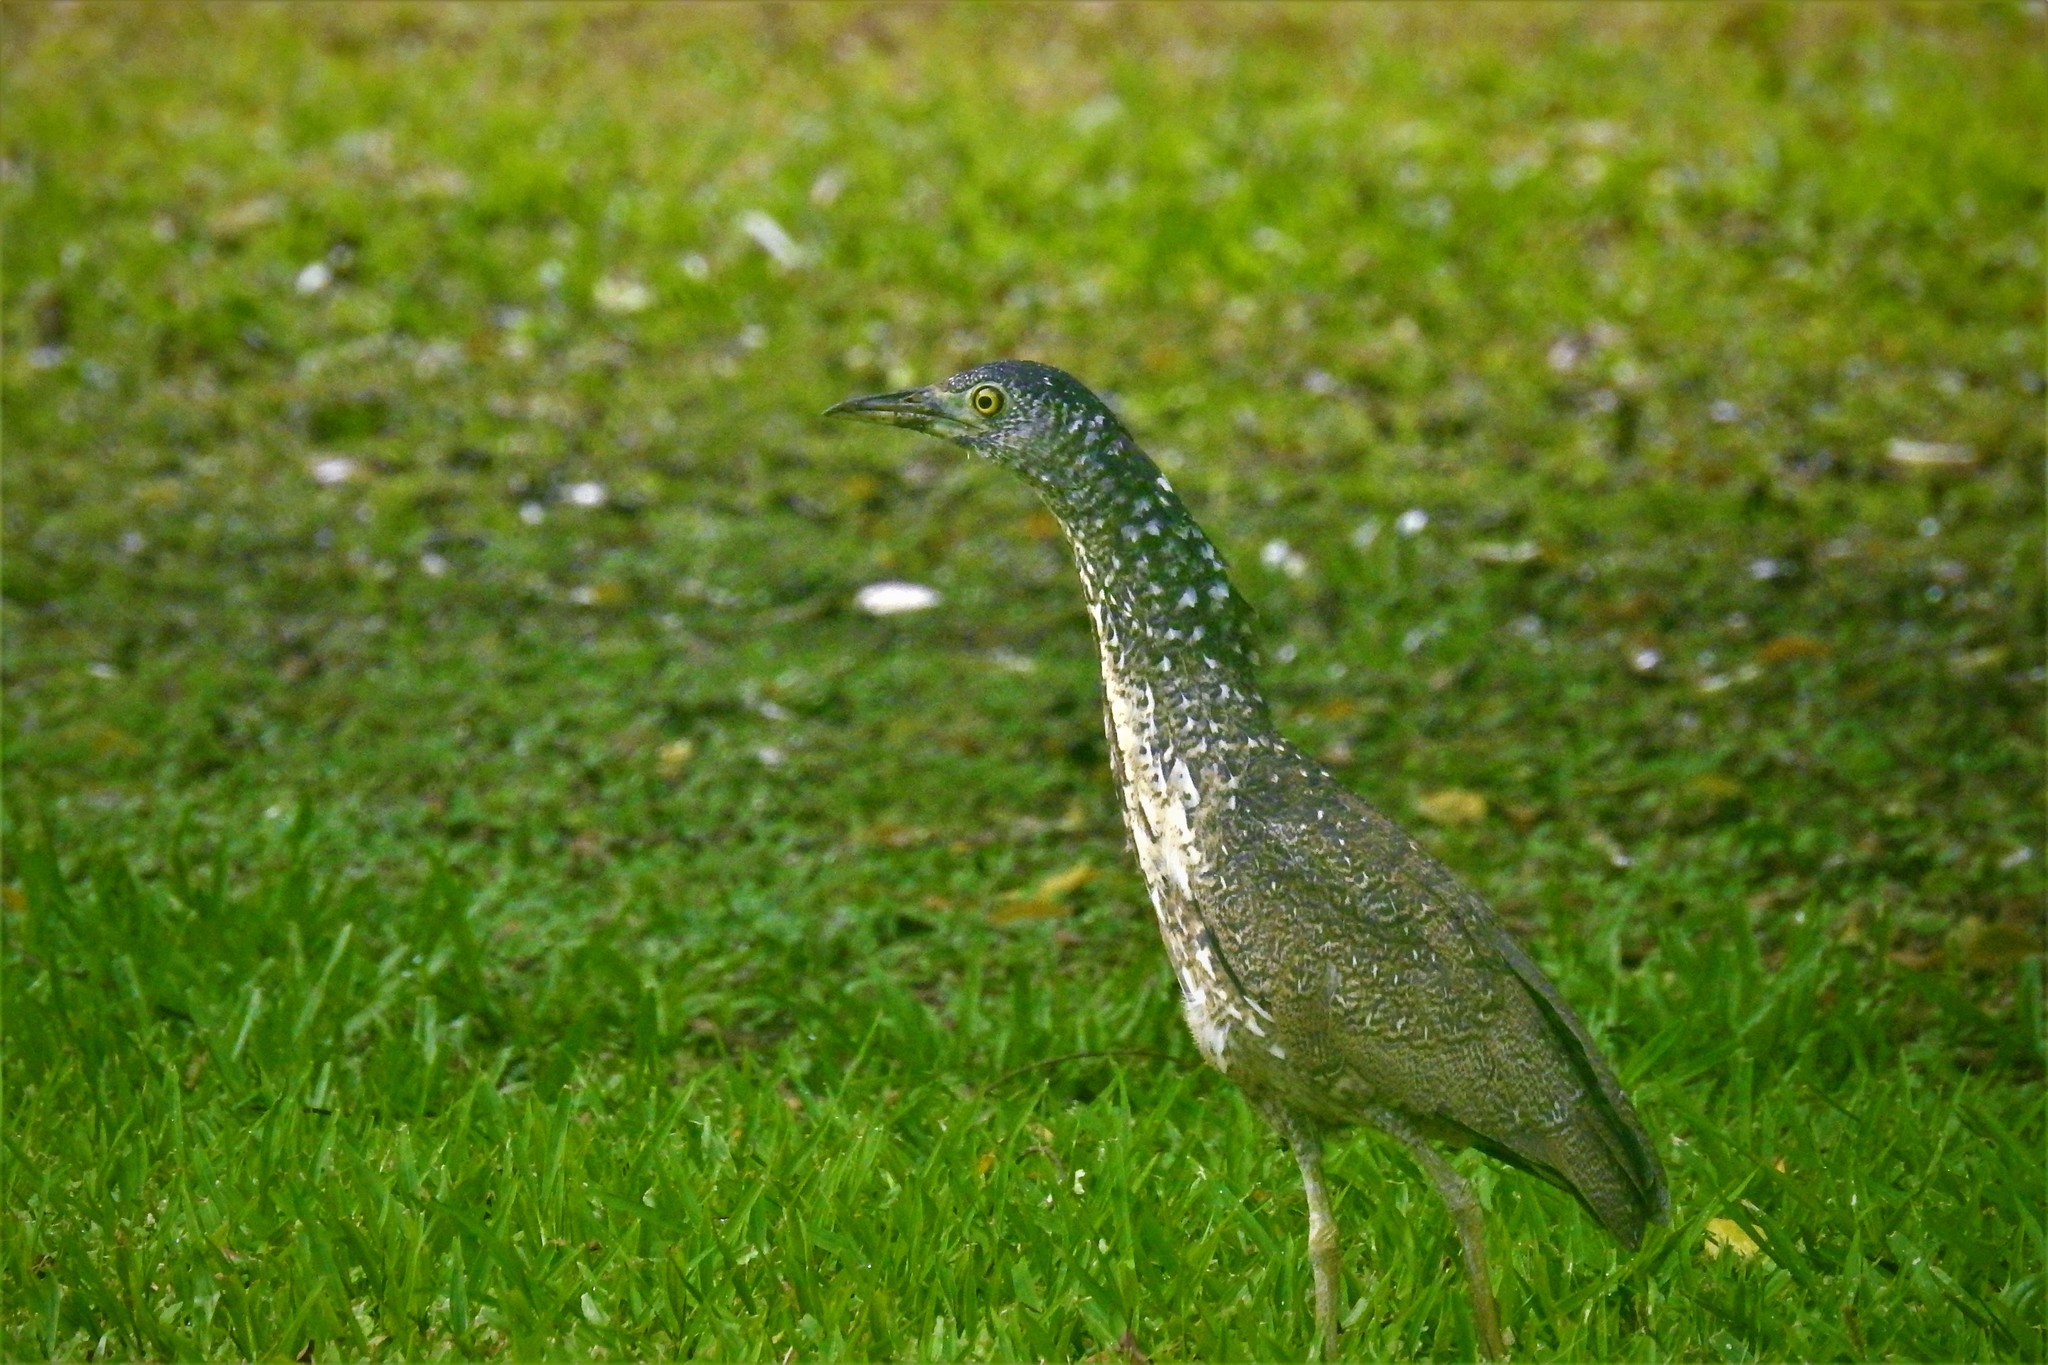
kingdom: Animalia
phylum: Chordata
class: Aves
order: Pelecaniformes
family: Ardeidae
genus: Gorsachius
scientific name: Gorsachius melanolophus
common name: Malayan night heron
